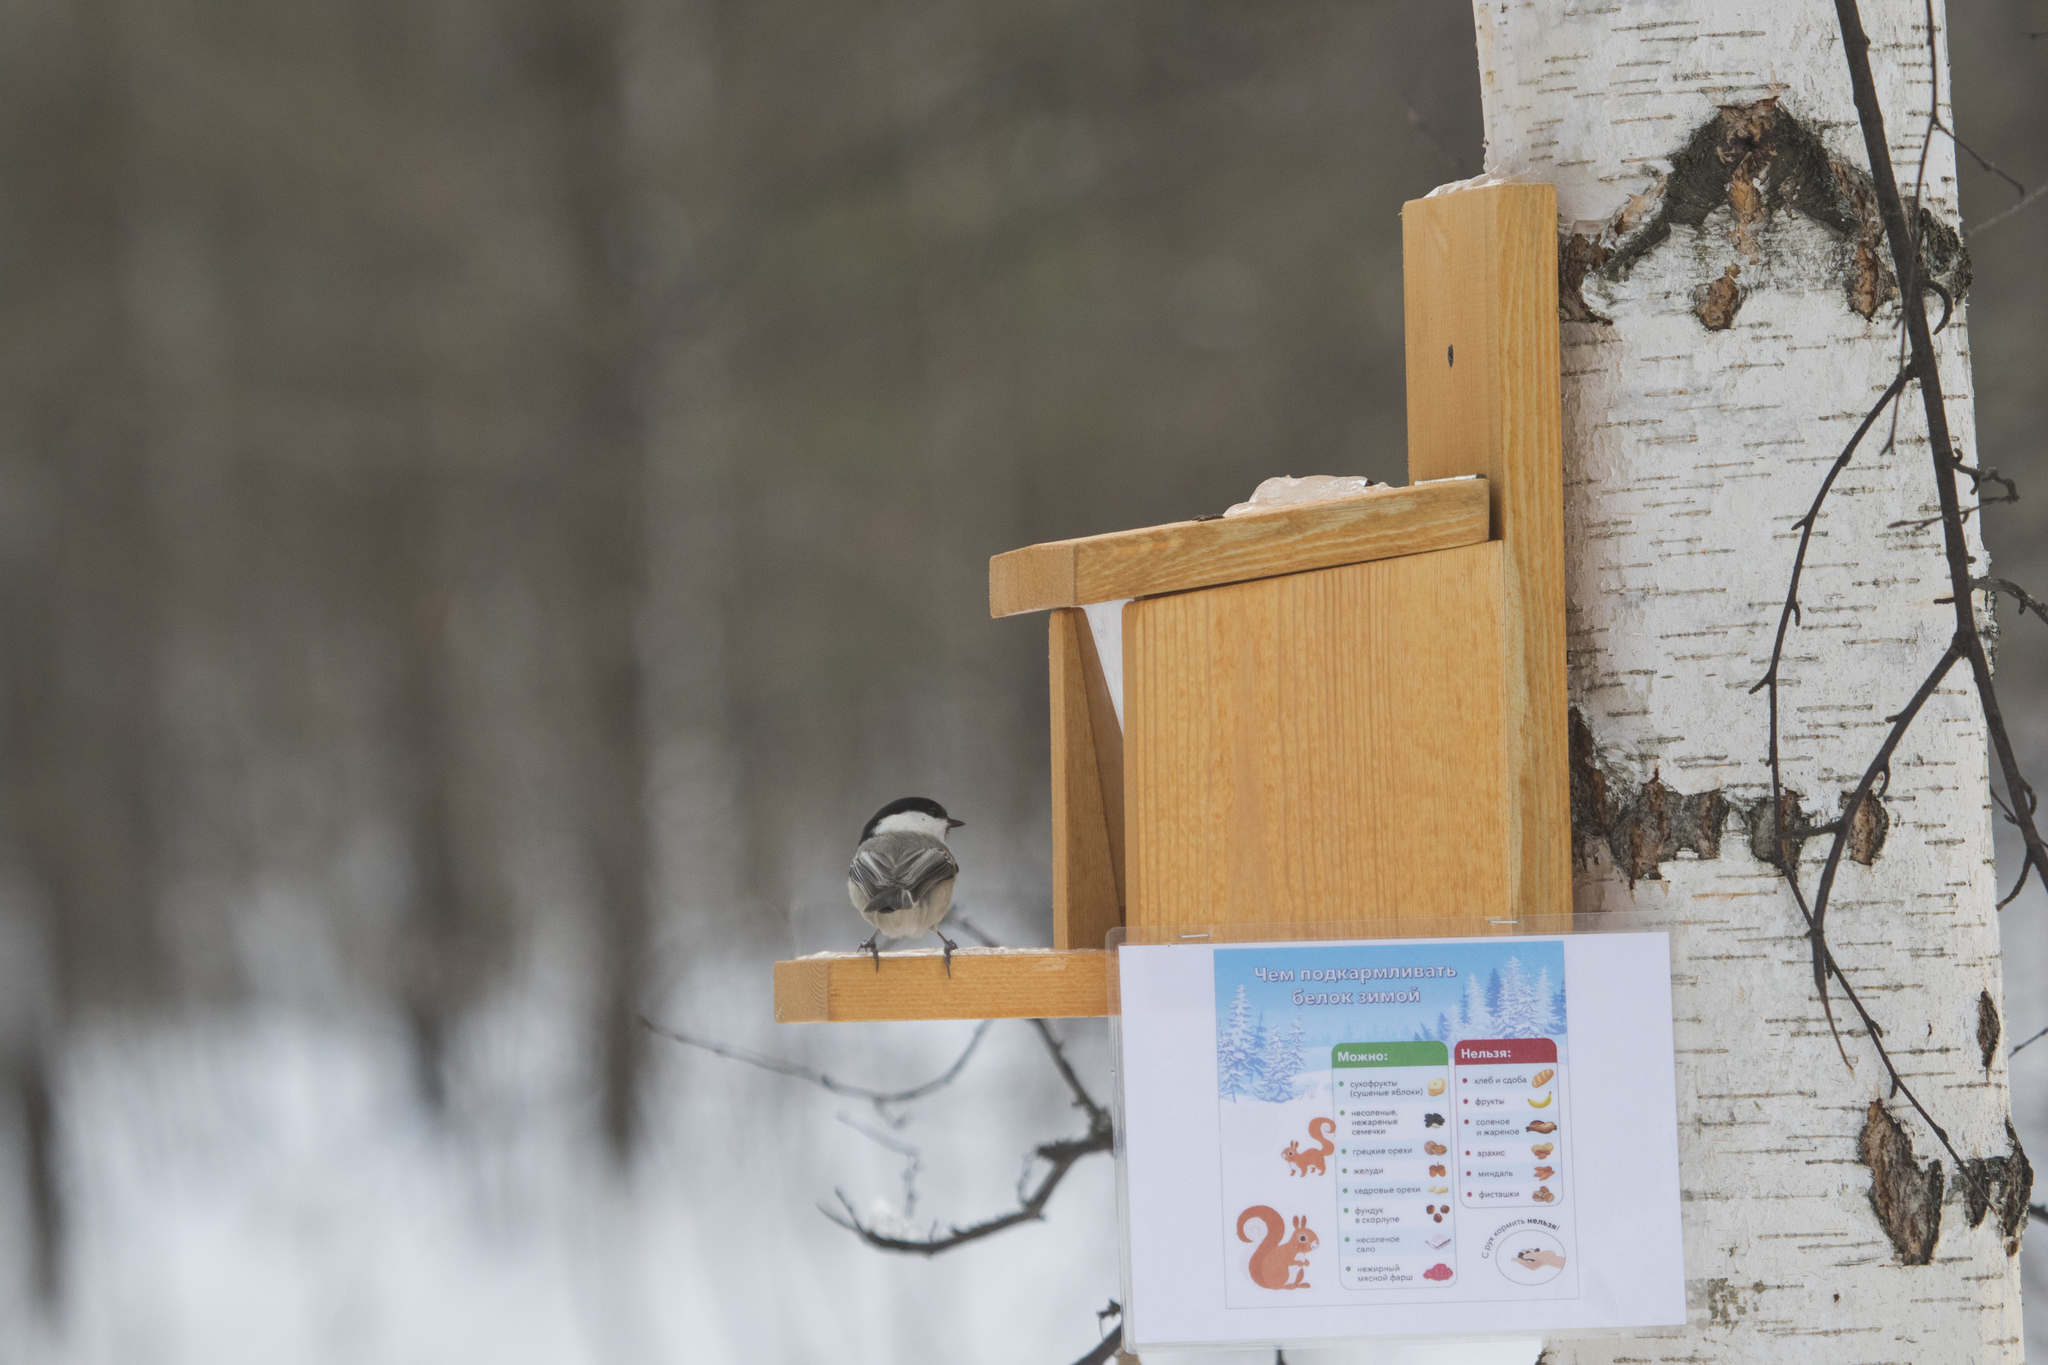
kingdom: Animalia
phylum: Chordata
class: Aves
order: Passeriformes
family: Paridae
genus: Poecile
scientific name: Poecile montanus
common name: Willow tit
